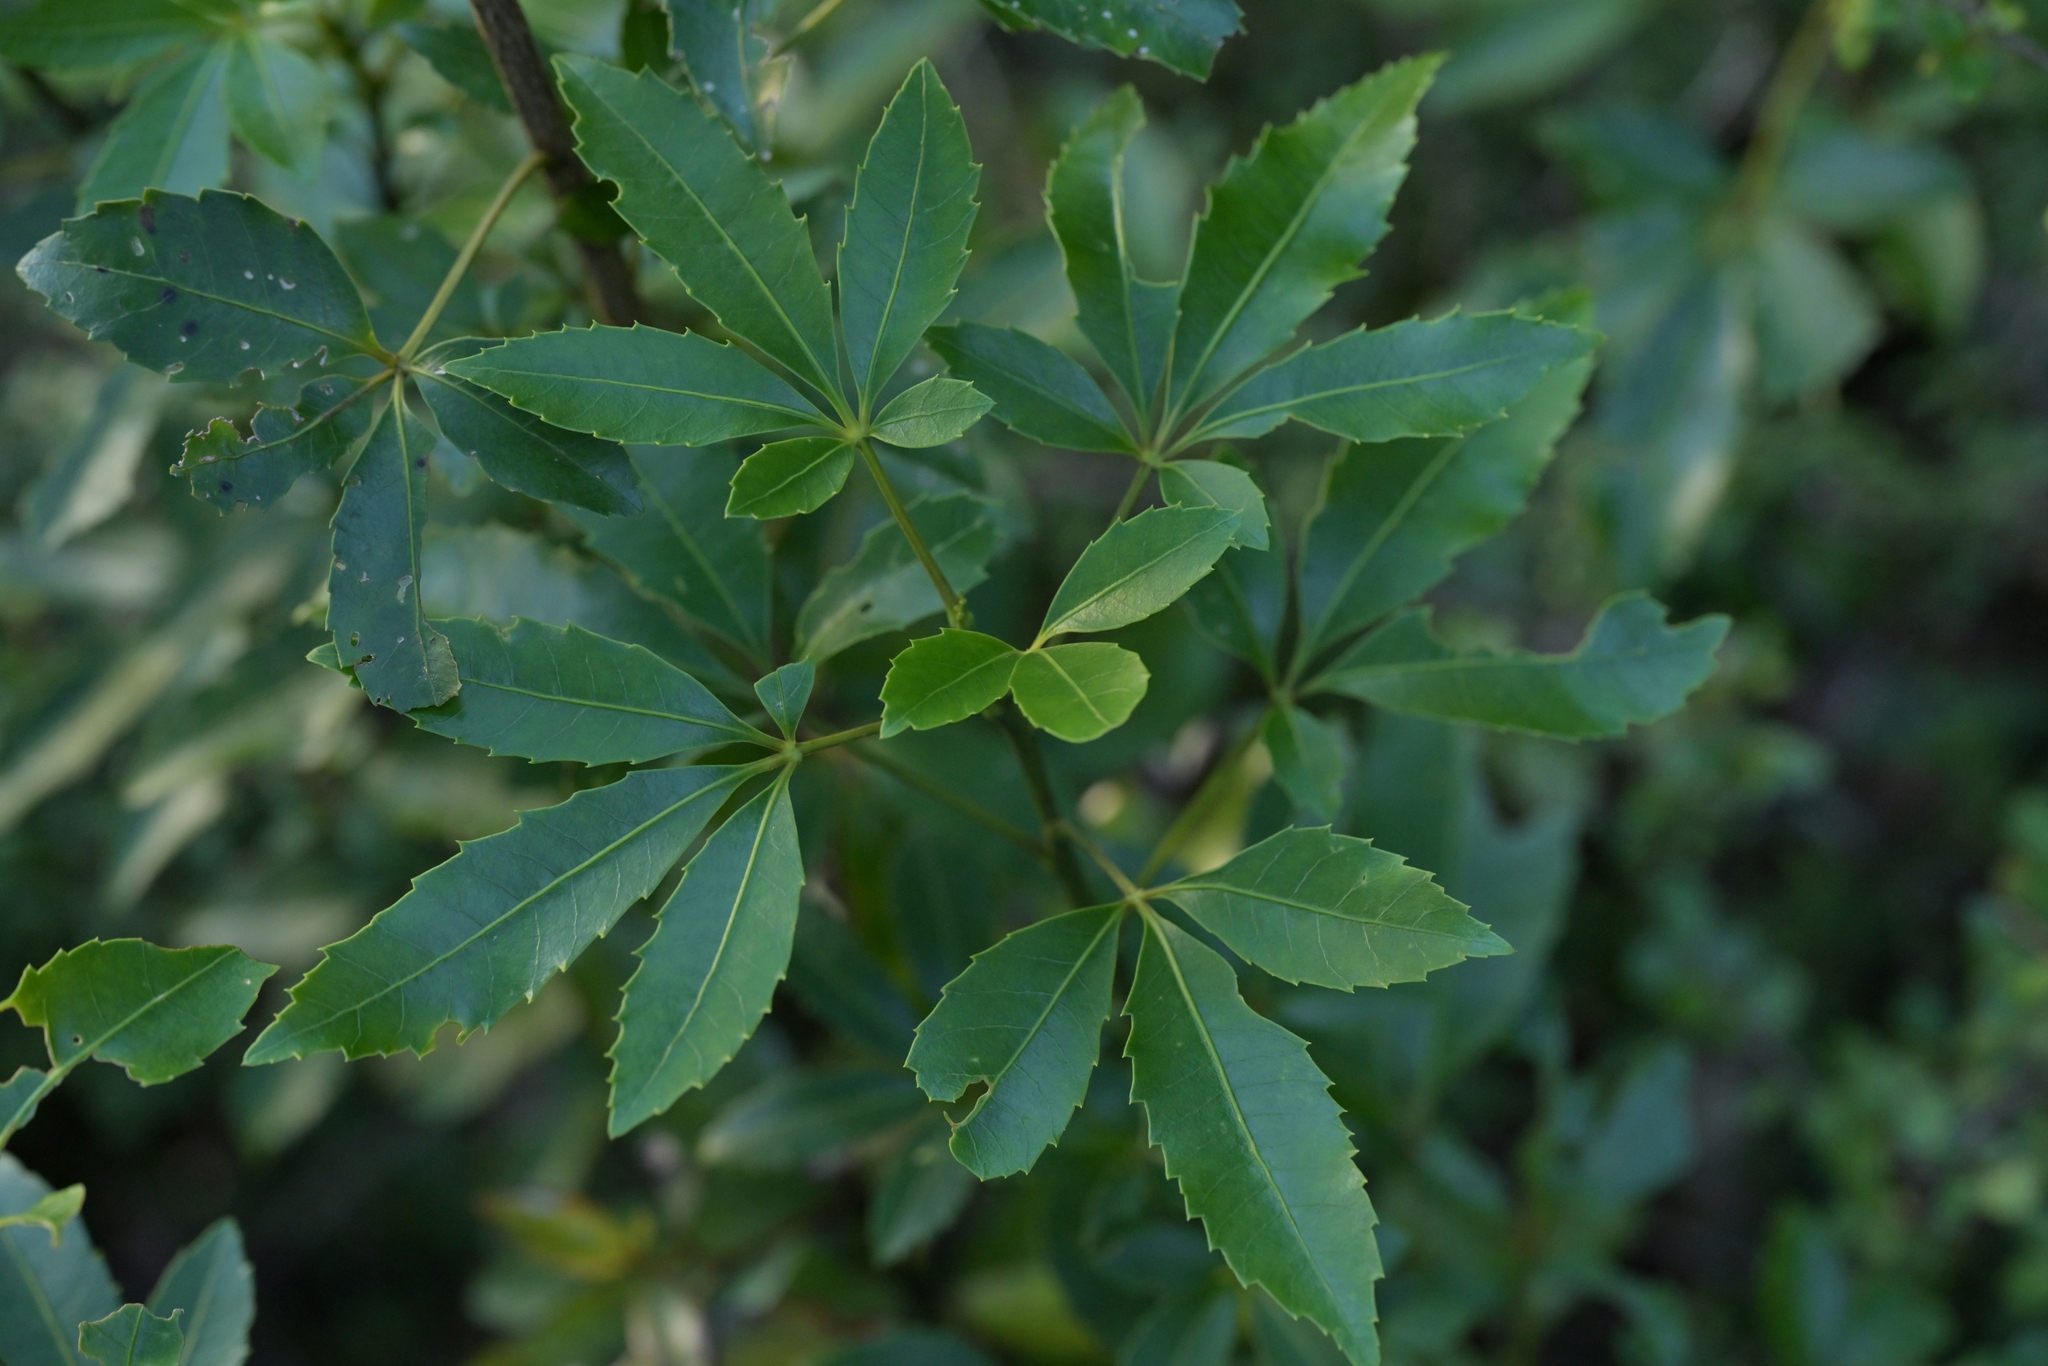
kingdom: Plantae
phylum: Tracheophyta
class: Magnoliopsida
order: Apiales
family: Araliaceae
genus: Neopanax
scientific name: Neopanax colensoi
